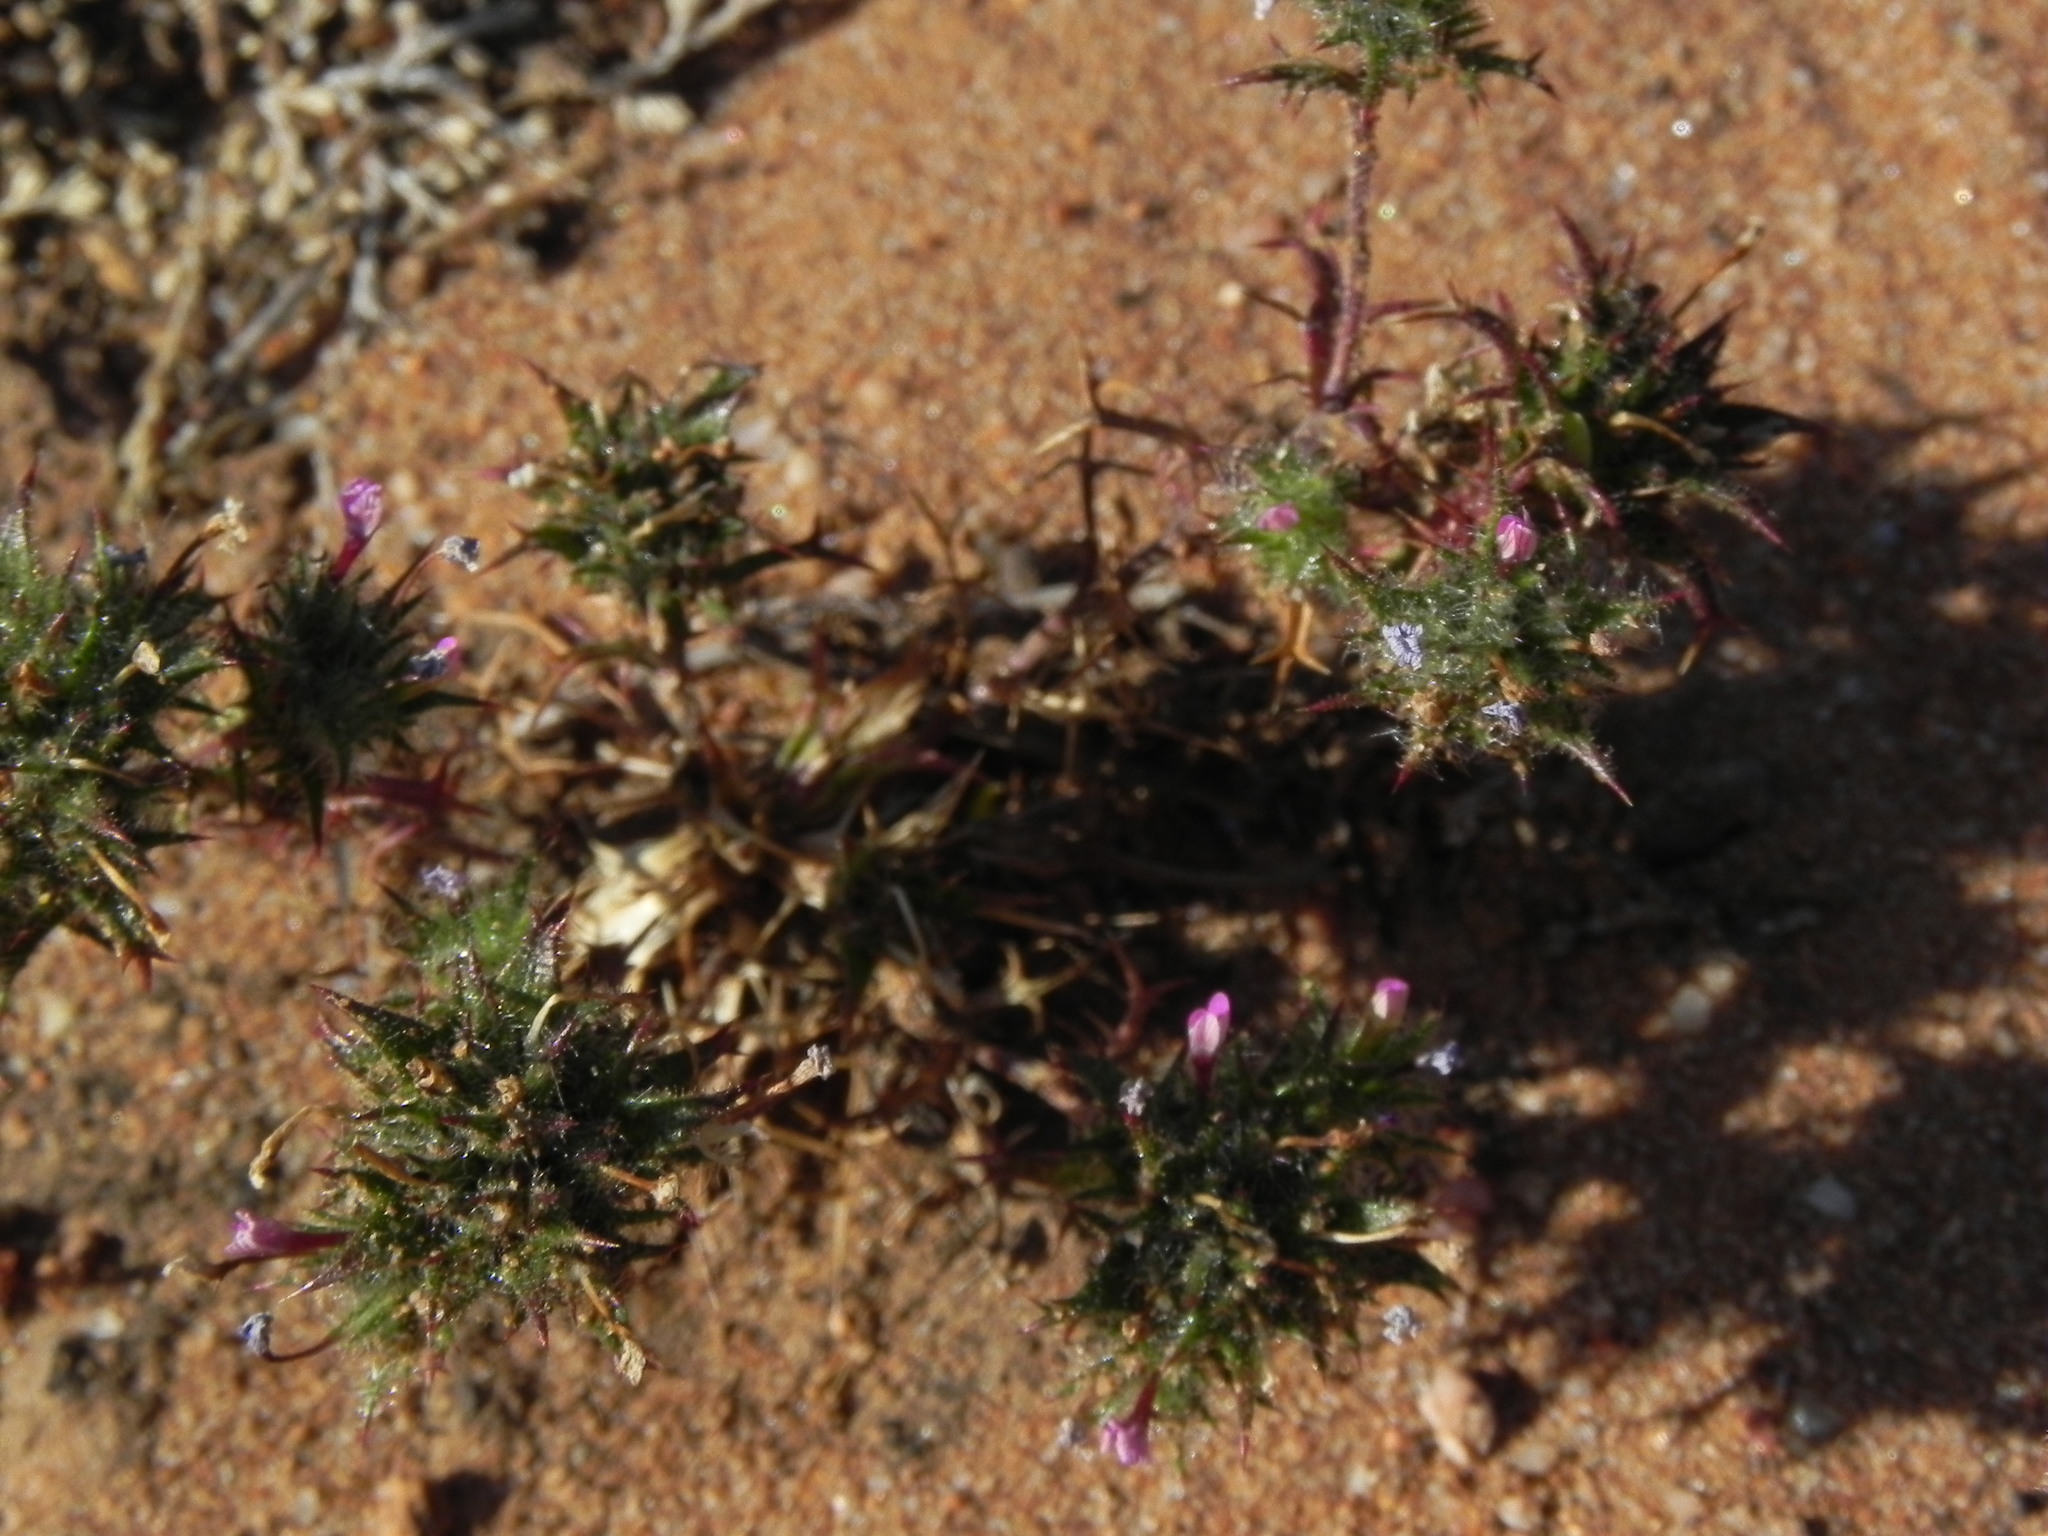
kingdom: Plantae
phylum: Tracheophyta
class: Magnoliopsida
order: Ericales
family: Polemoniaceae
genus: Navarretia
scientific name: Navarretia hamata
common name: Hooked navarretia
